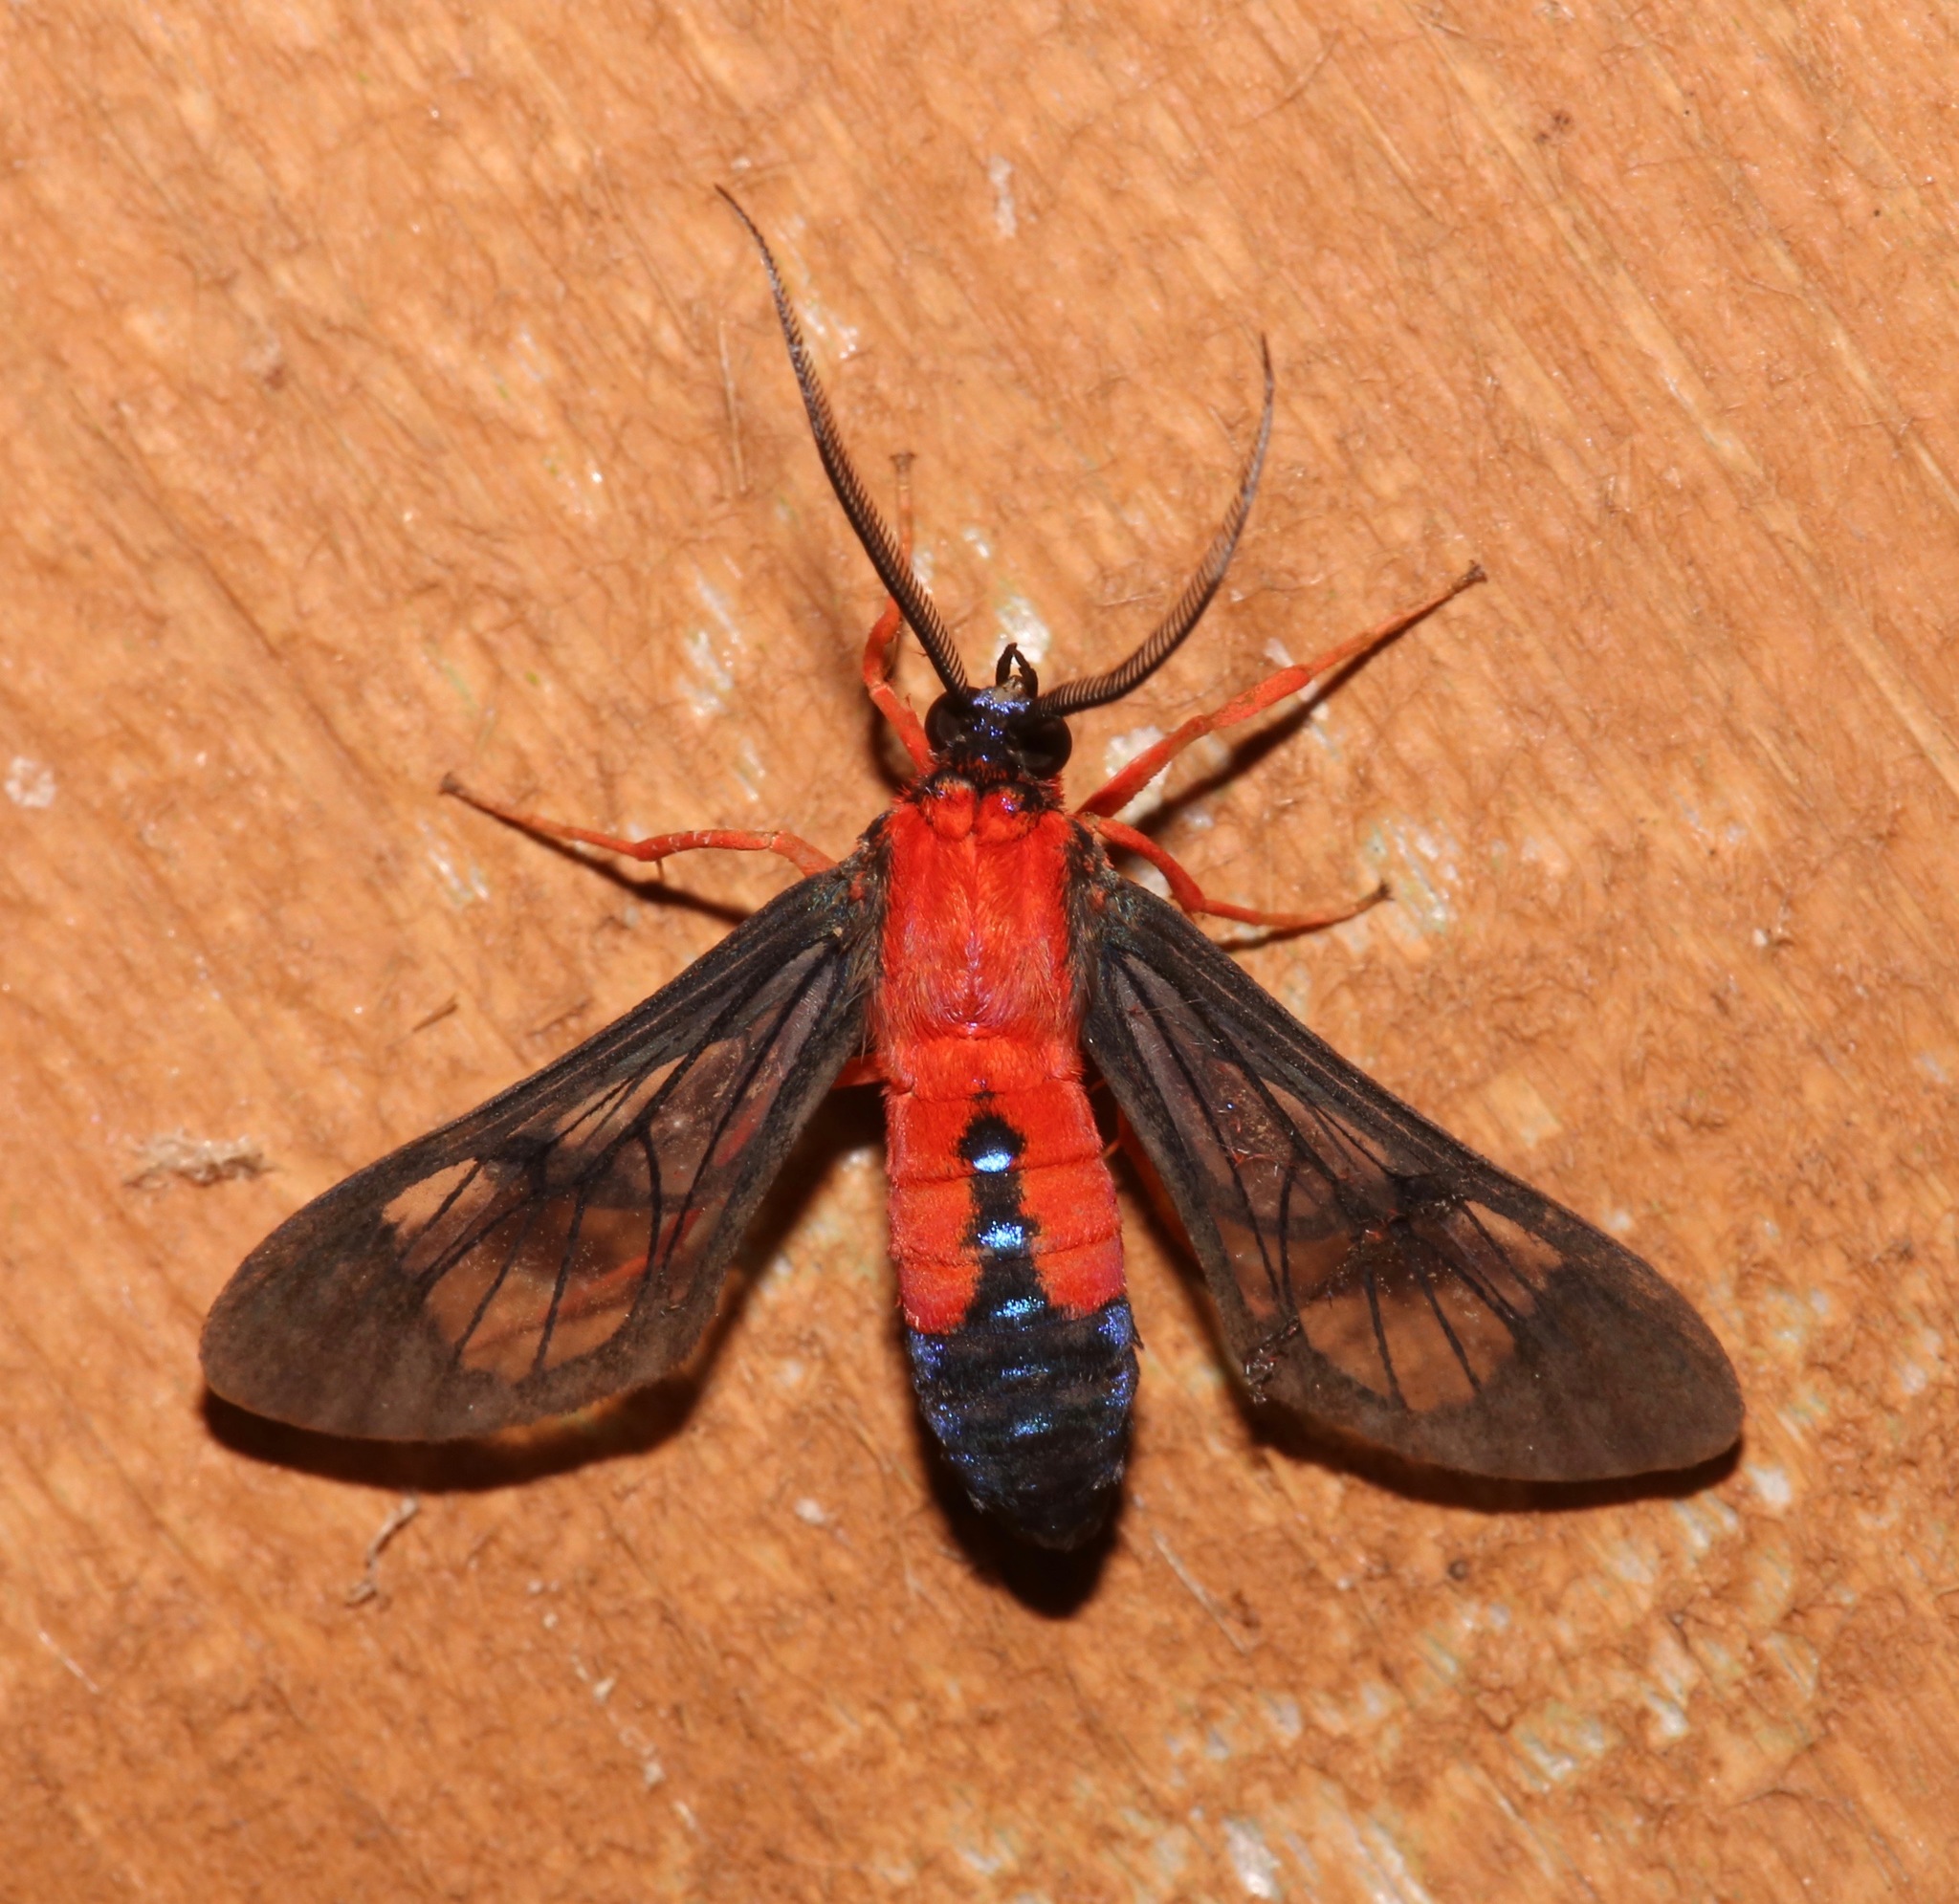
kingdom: Animalia
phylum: Arthropoda
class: Insecta
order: Lepidoptera
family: Erebidae
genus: Cosmosoma
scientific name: Cosmosoma myrodora
